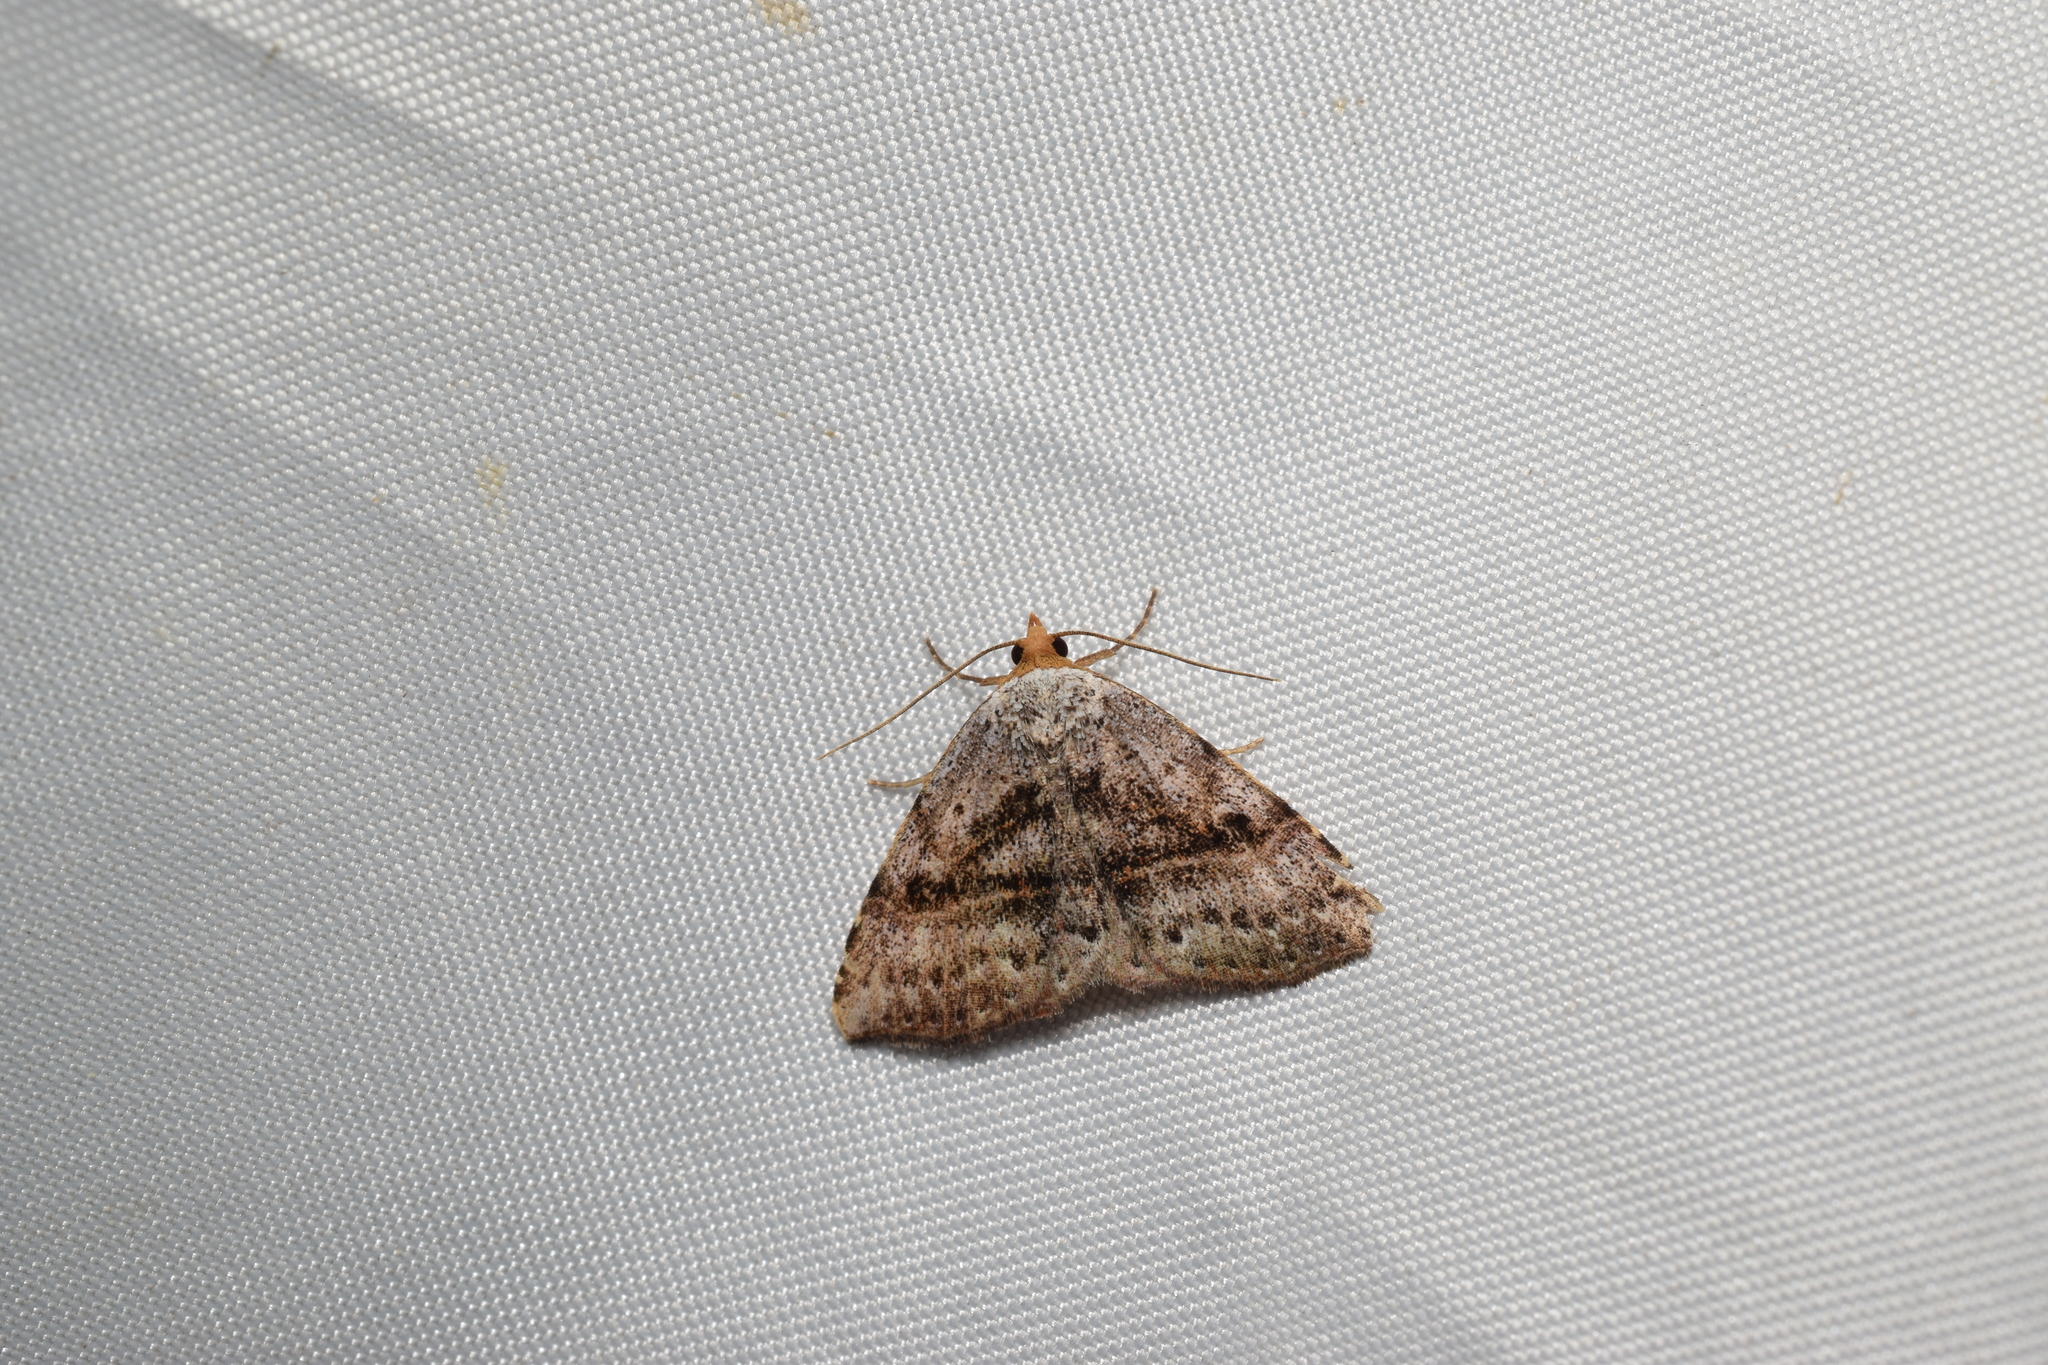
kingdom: Animalia
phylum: Arthropoda
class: Insecta
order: Lepidoptera
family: Erebidae
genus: Laspeyria
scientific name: Laspeyria subrosea
